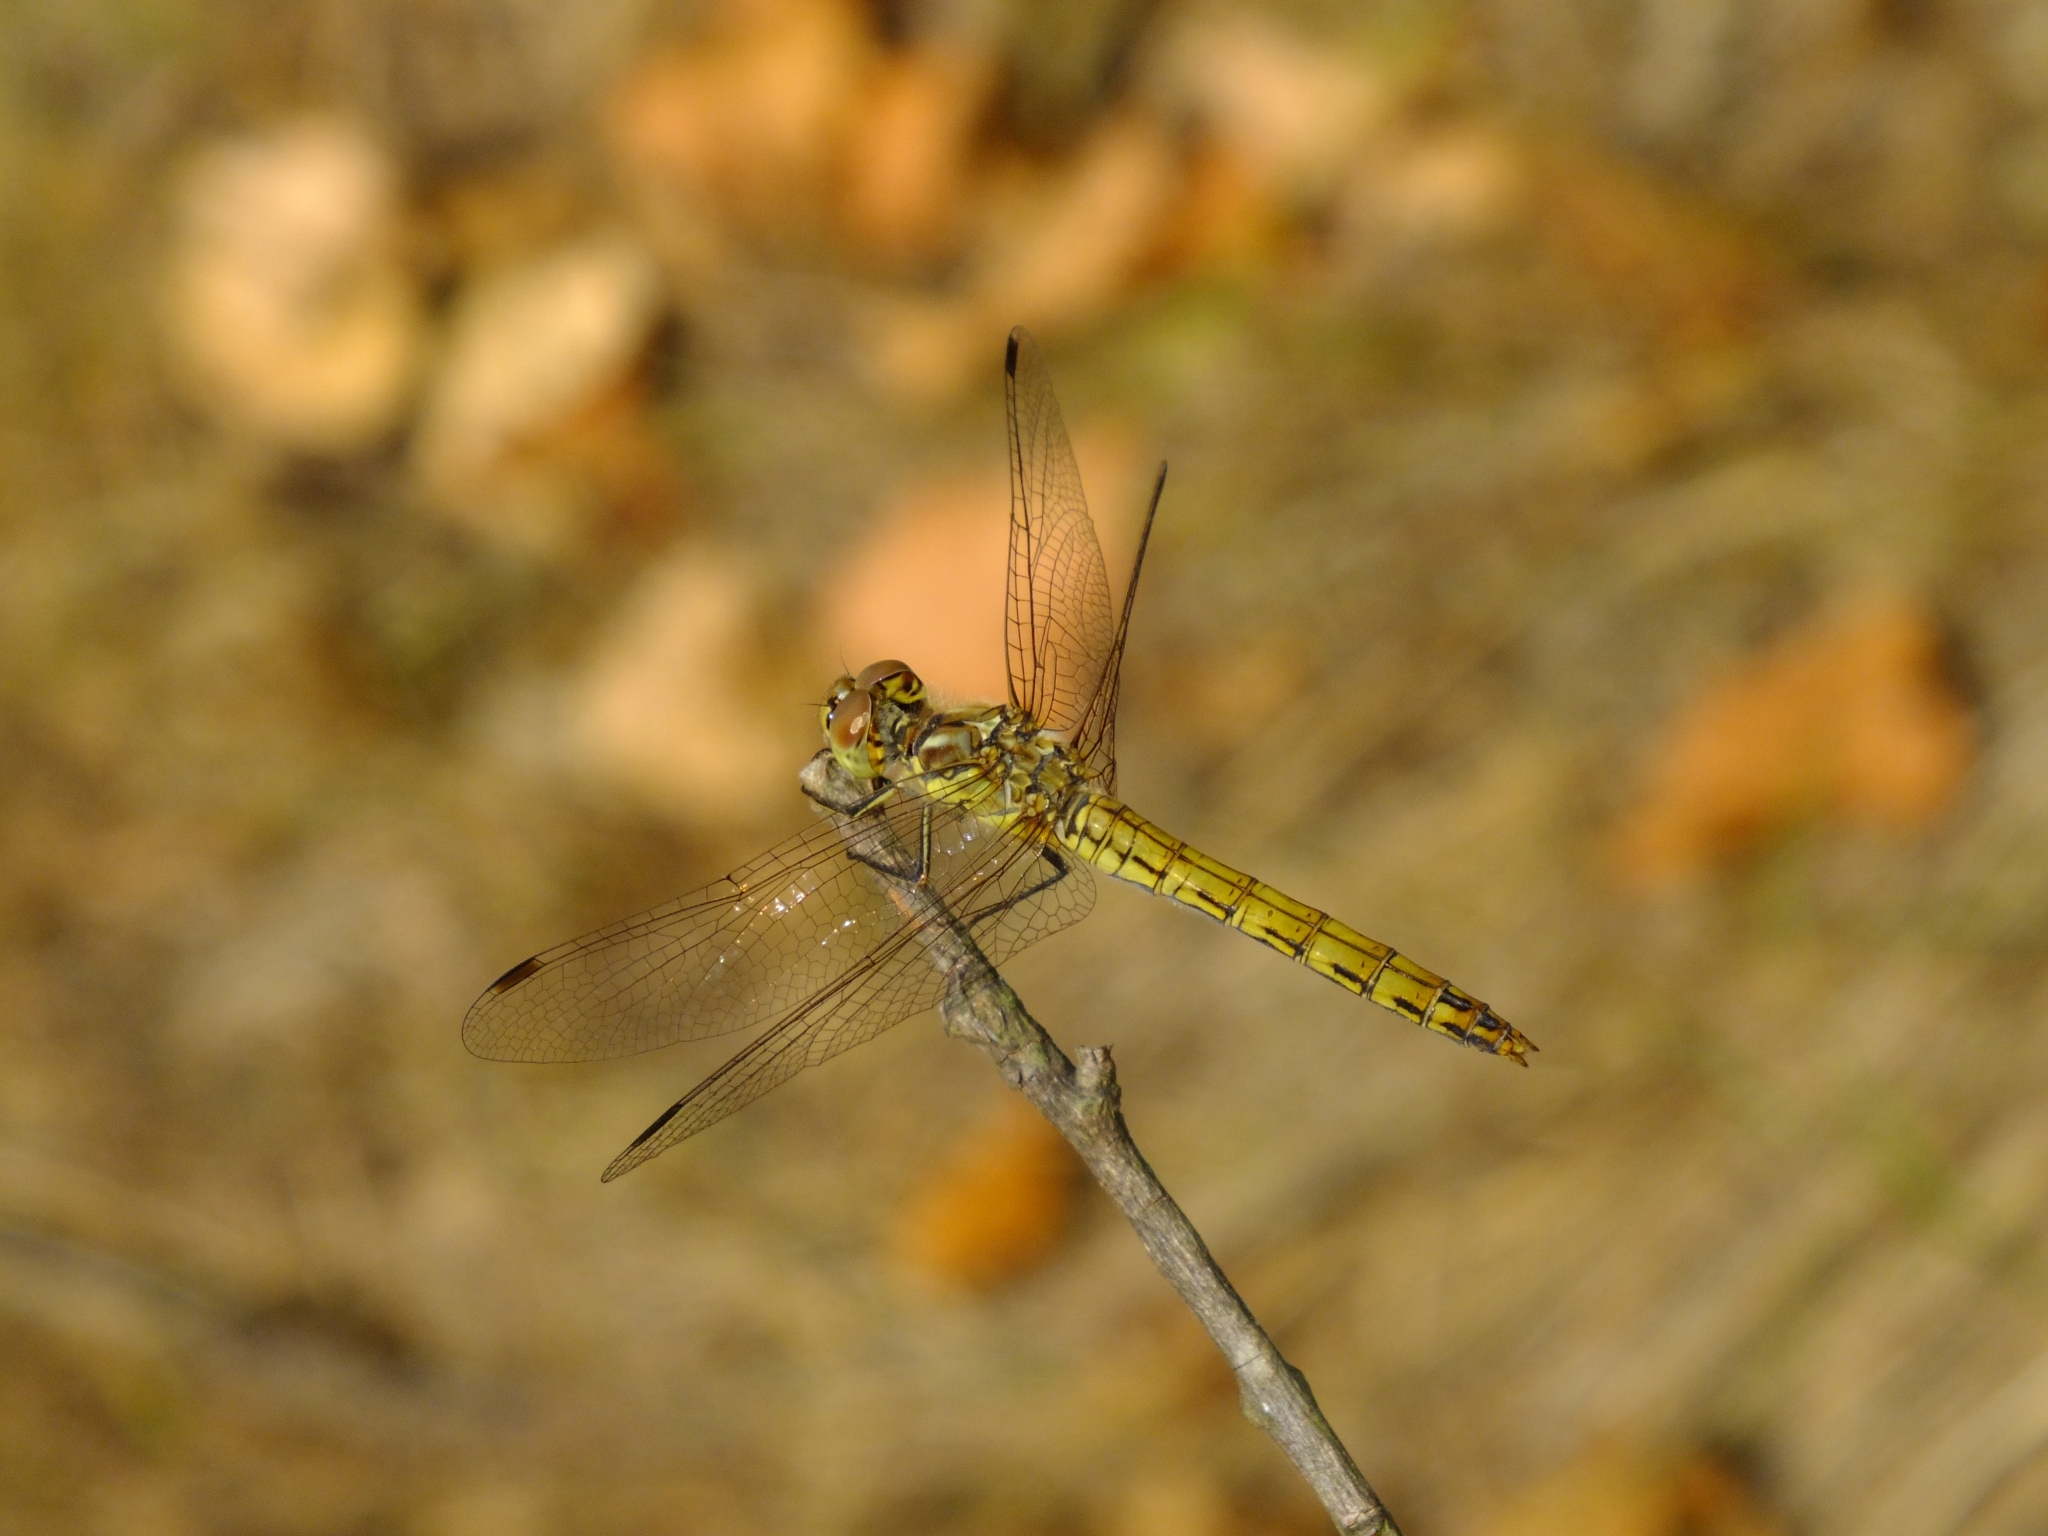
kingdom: Animalia
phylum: Arthropoda
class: Insecta
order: Odonata
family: Libellulidae
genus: Sympetrum
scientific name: Sympetrum vulgatum
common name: Vagrant darter
